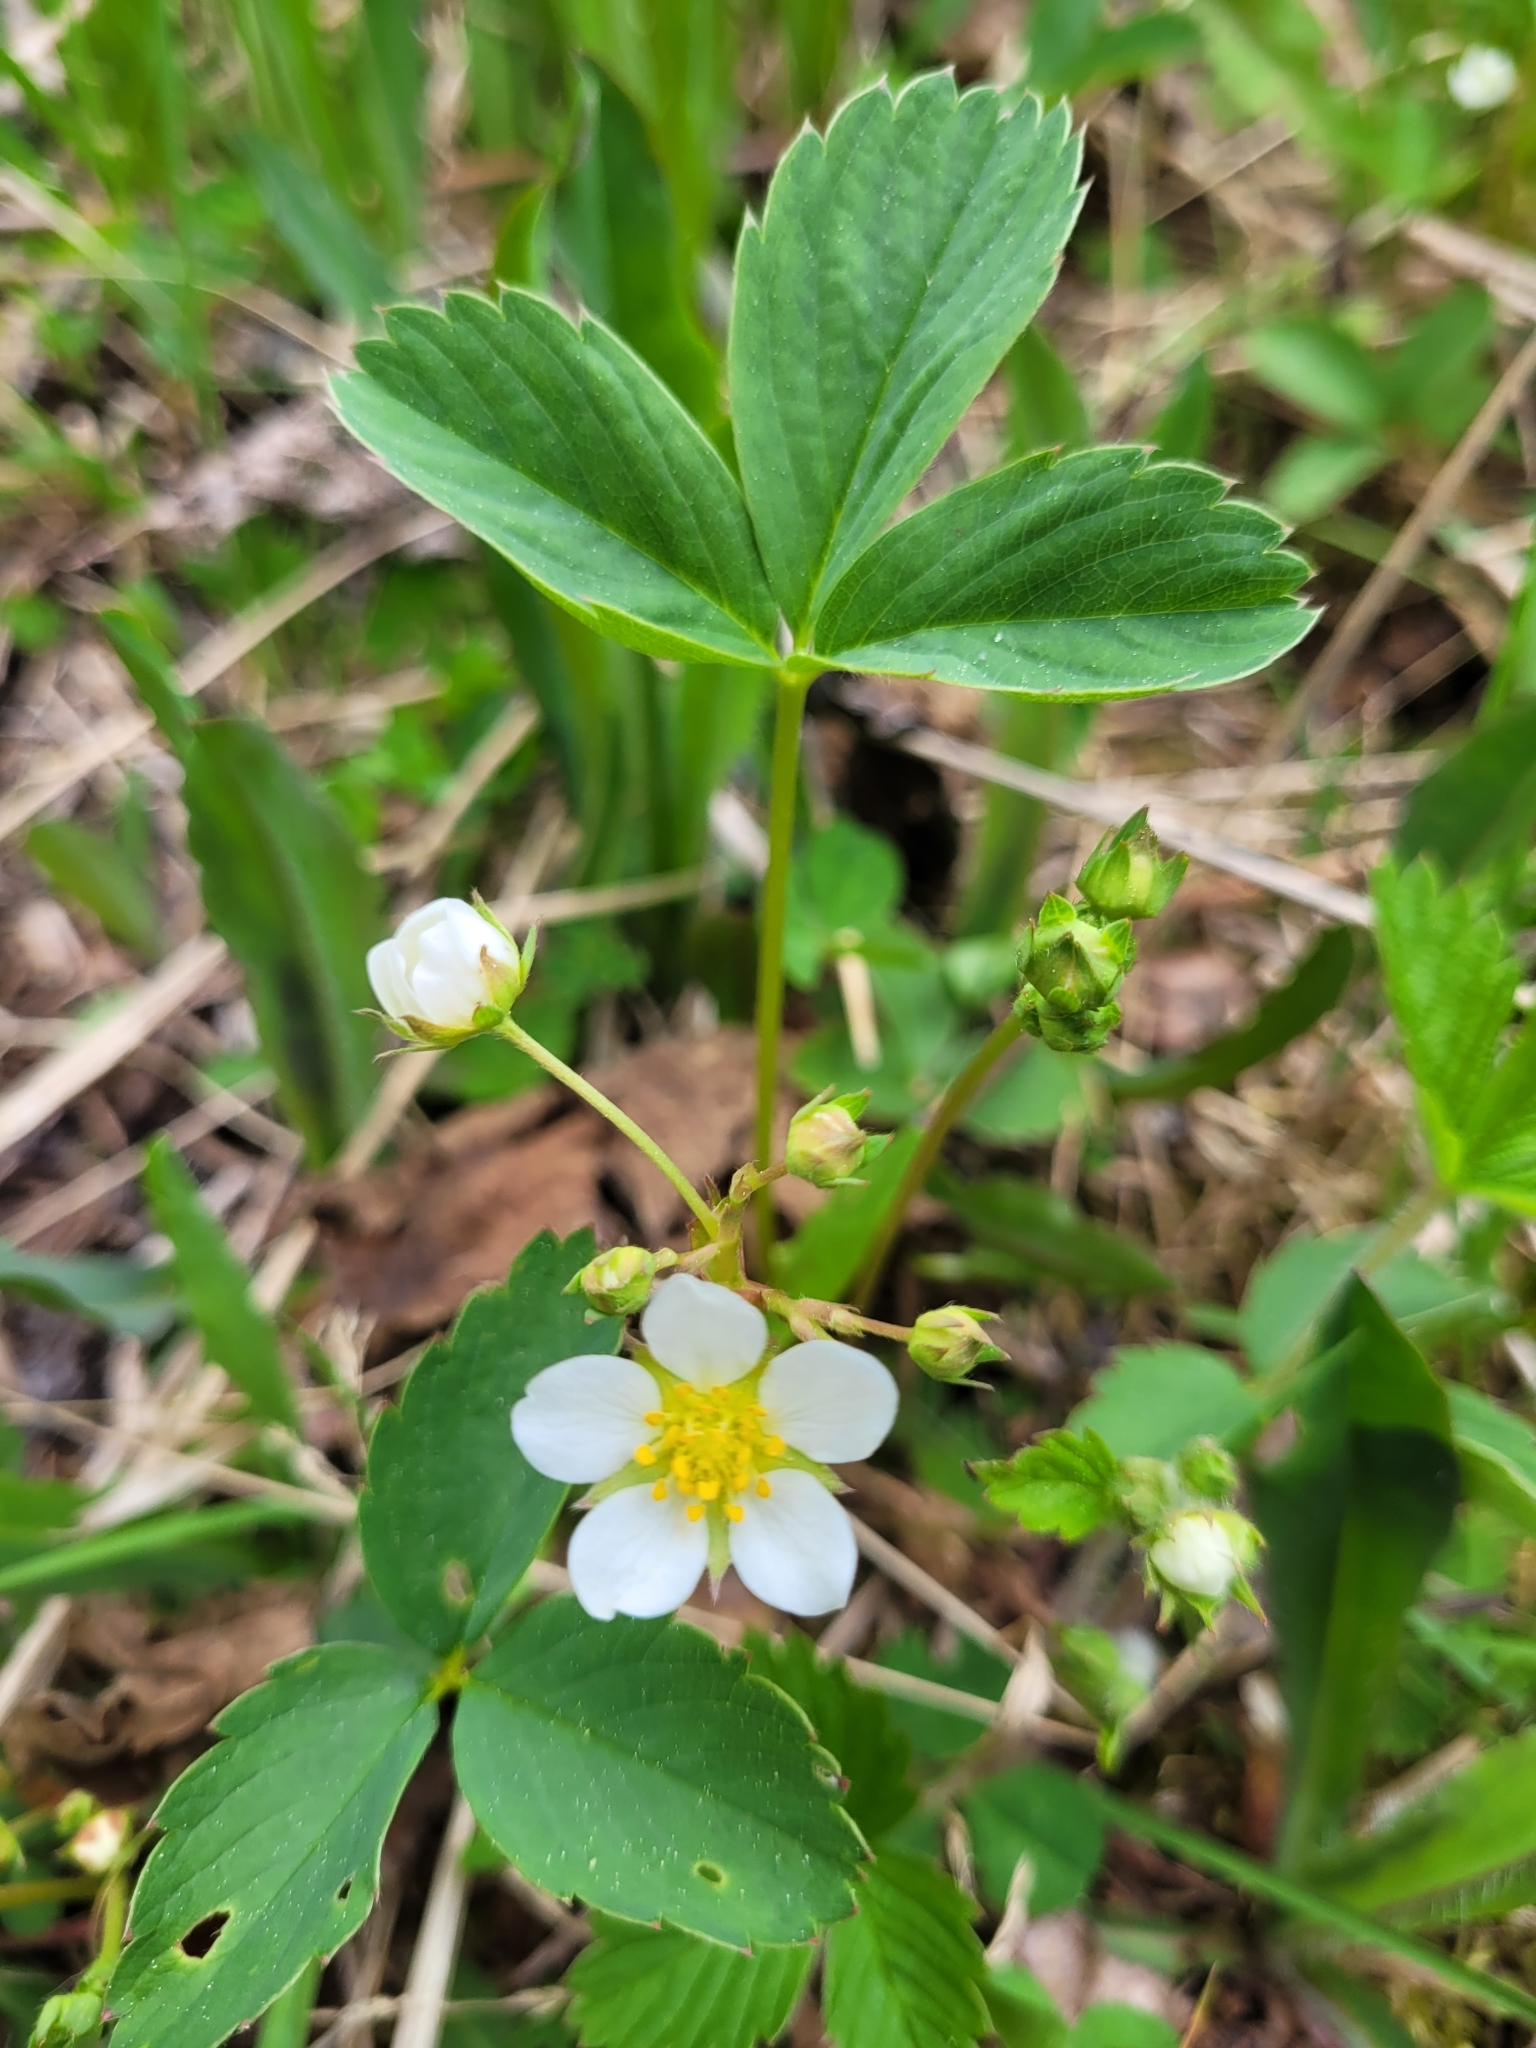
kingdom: Plantae
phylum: Tracheophyta
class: Magnoliopsida
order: Rosales
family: Rosaceae
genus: Fragaria
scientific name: Fragaria virginiana
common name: Thickleaved wild strawberry
